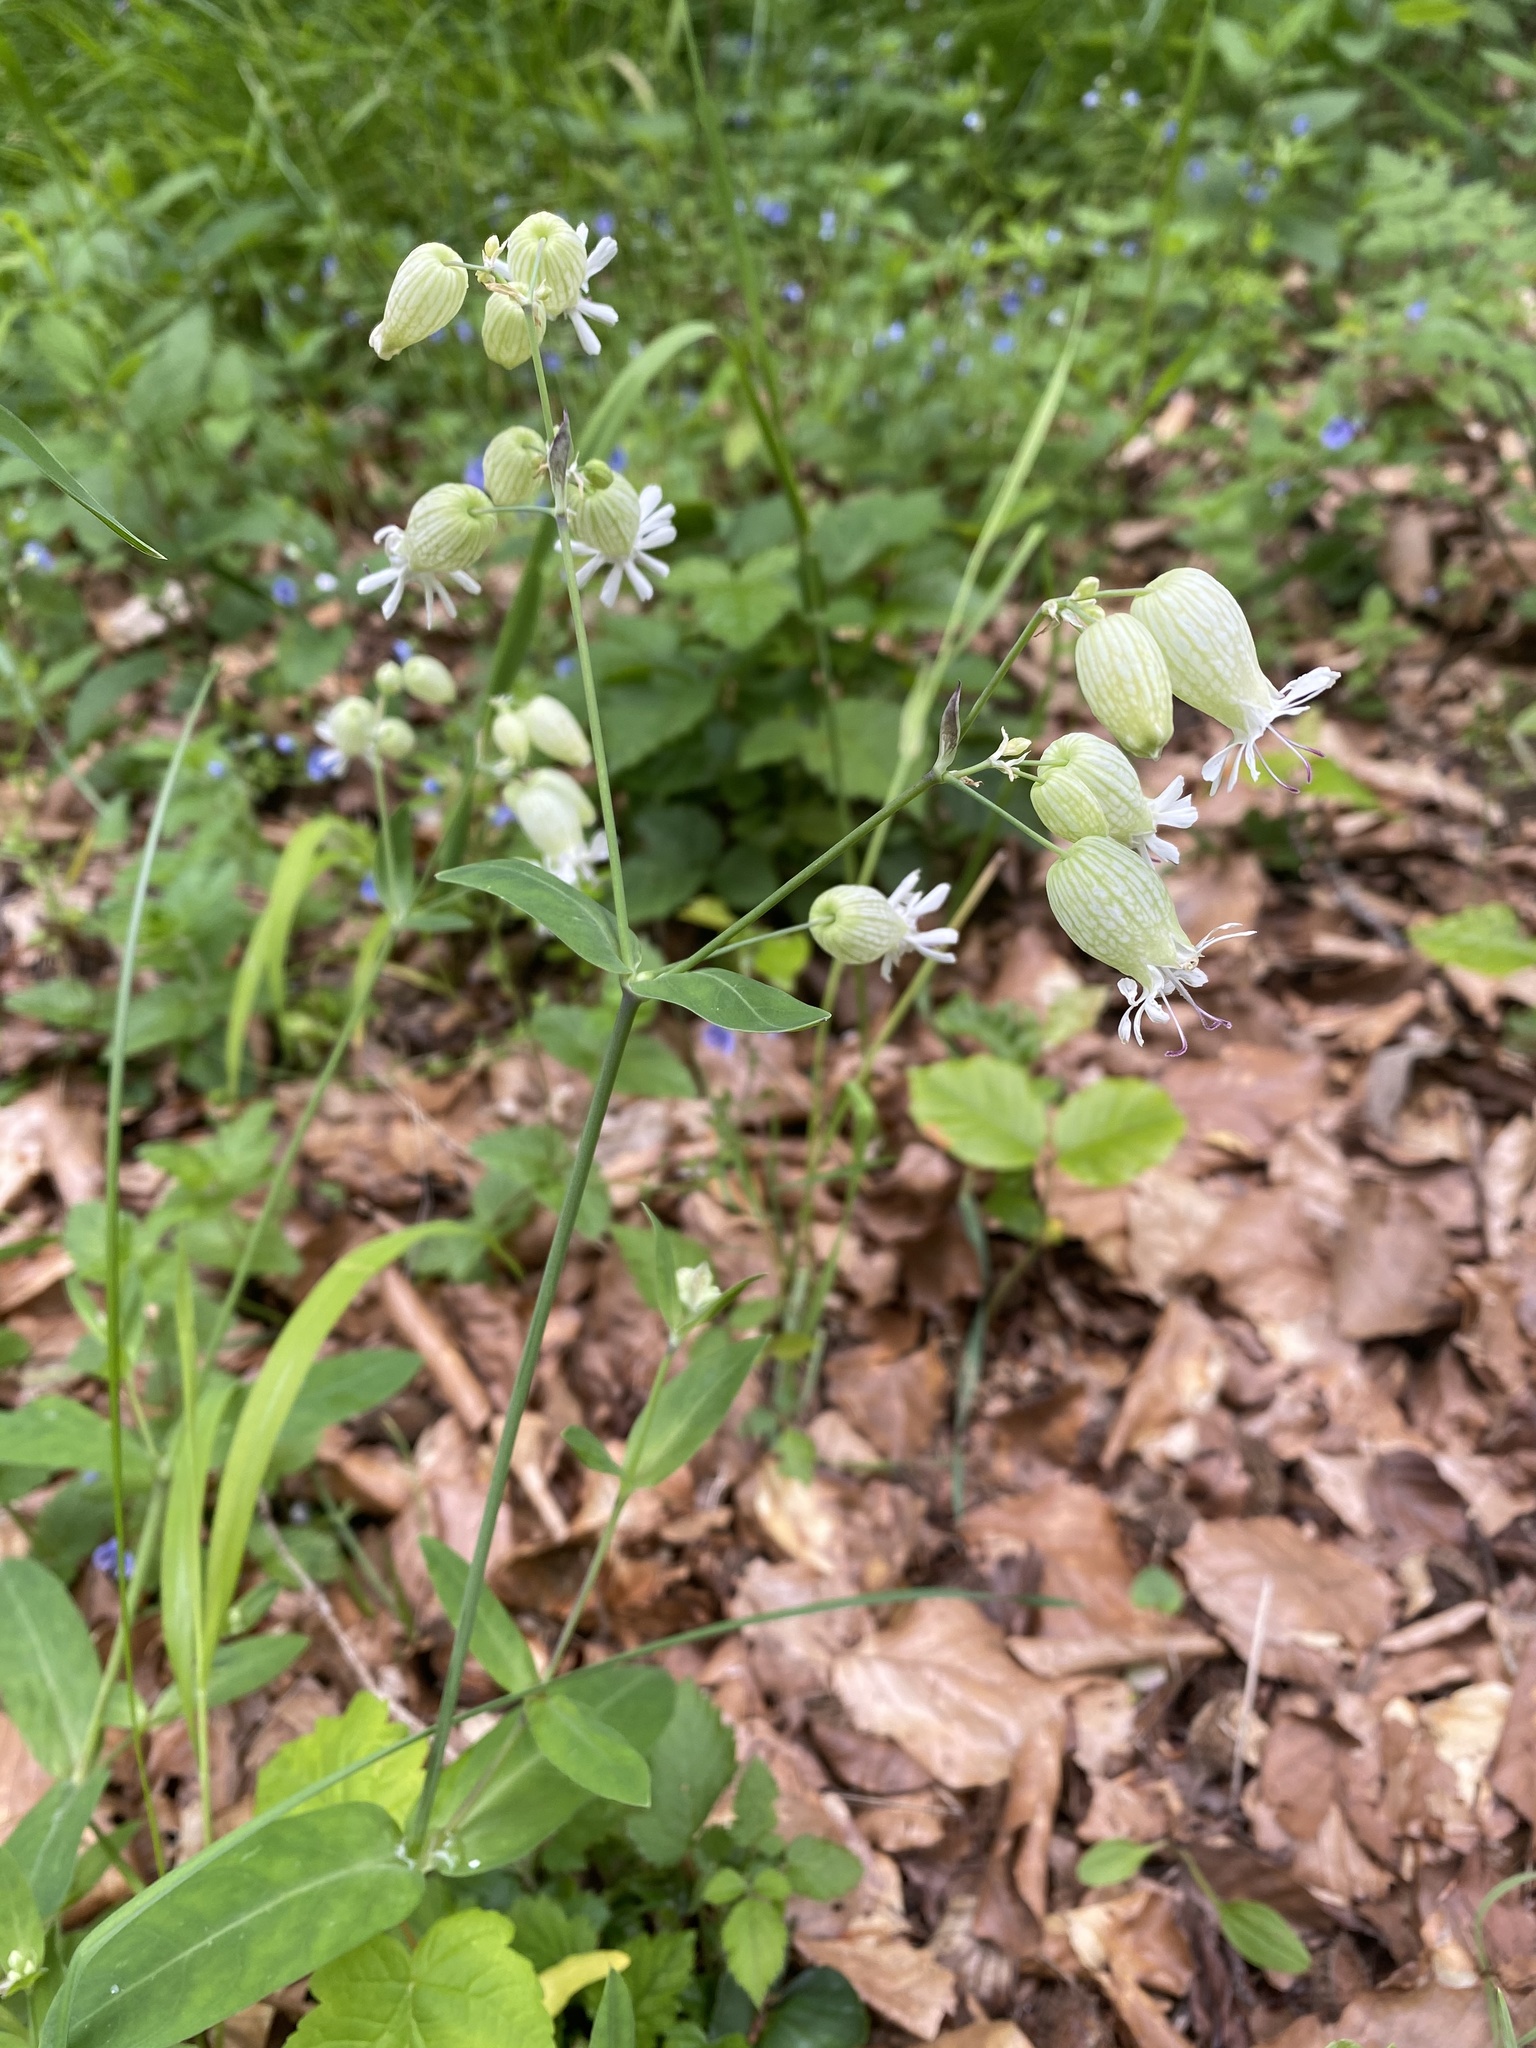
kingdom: Plantae
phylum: Tracheophyta
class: Magnoliopsida
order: Caryophyllales
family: Caryophyllaceae
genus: Silene
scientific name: Silene vulgaris
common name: Bladder campion
